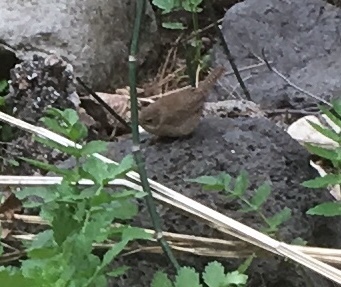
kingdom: Animalia
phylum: Chordata
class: Aves
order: Passeriformes
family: Troglodytidae
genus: Troglodytes
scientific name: Troglodytes aedon
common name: House wren
